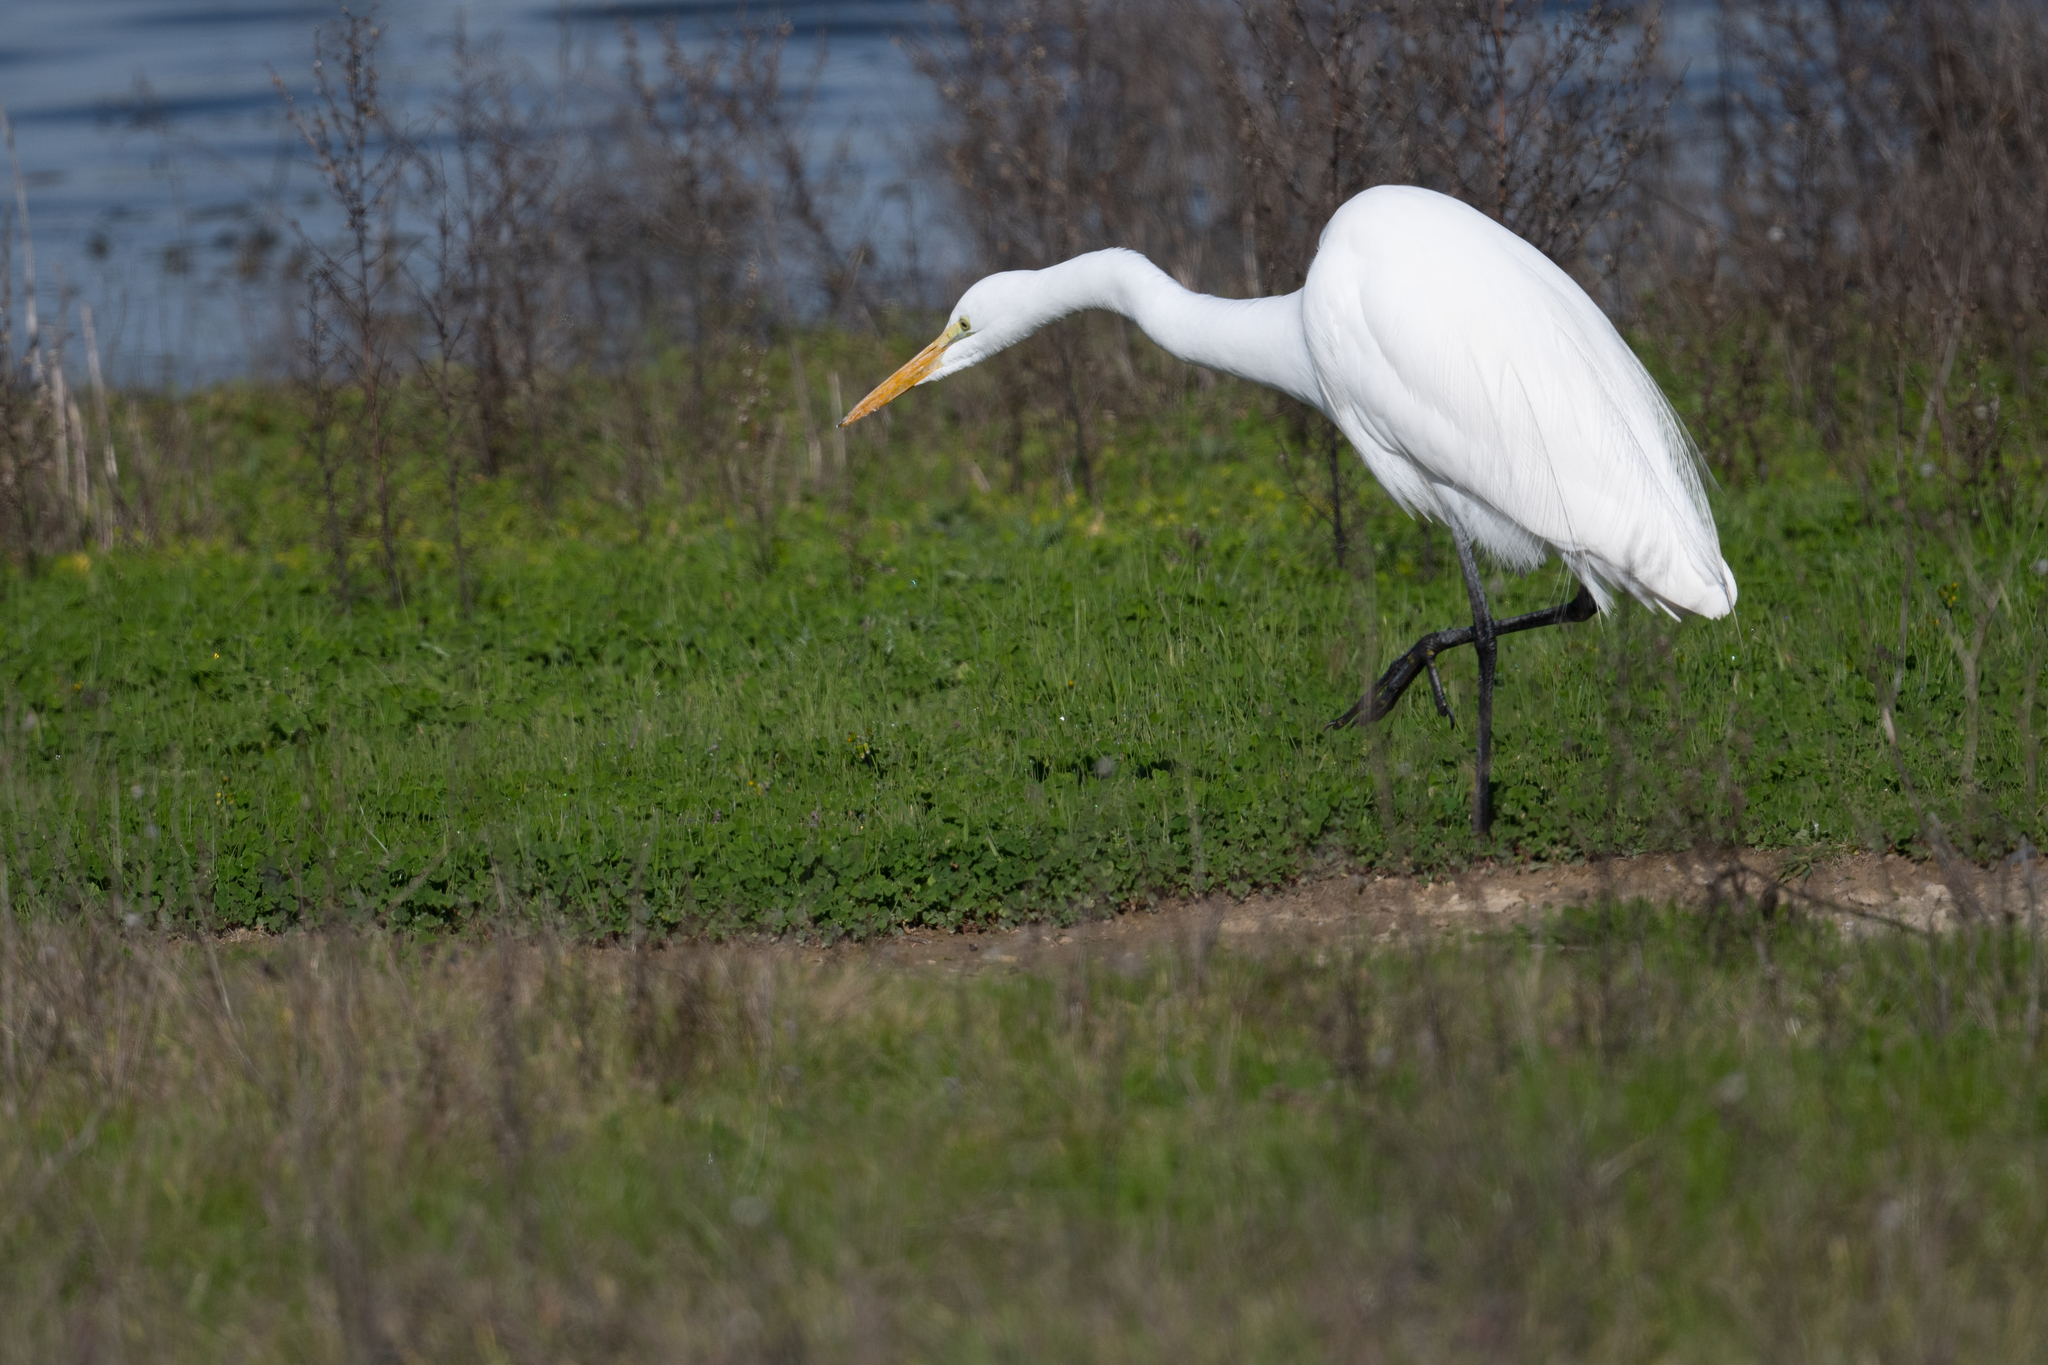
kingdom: Animalia
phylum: Chordata
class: Aves
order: Pelecaniformes
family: Ardeidae
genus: Ardea
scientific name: Ardea alba
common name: Great egret
